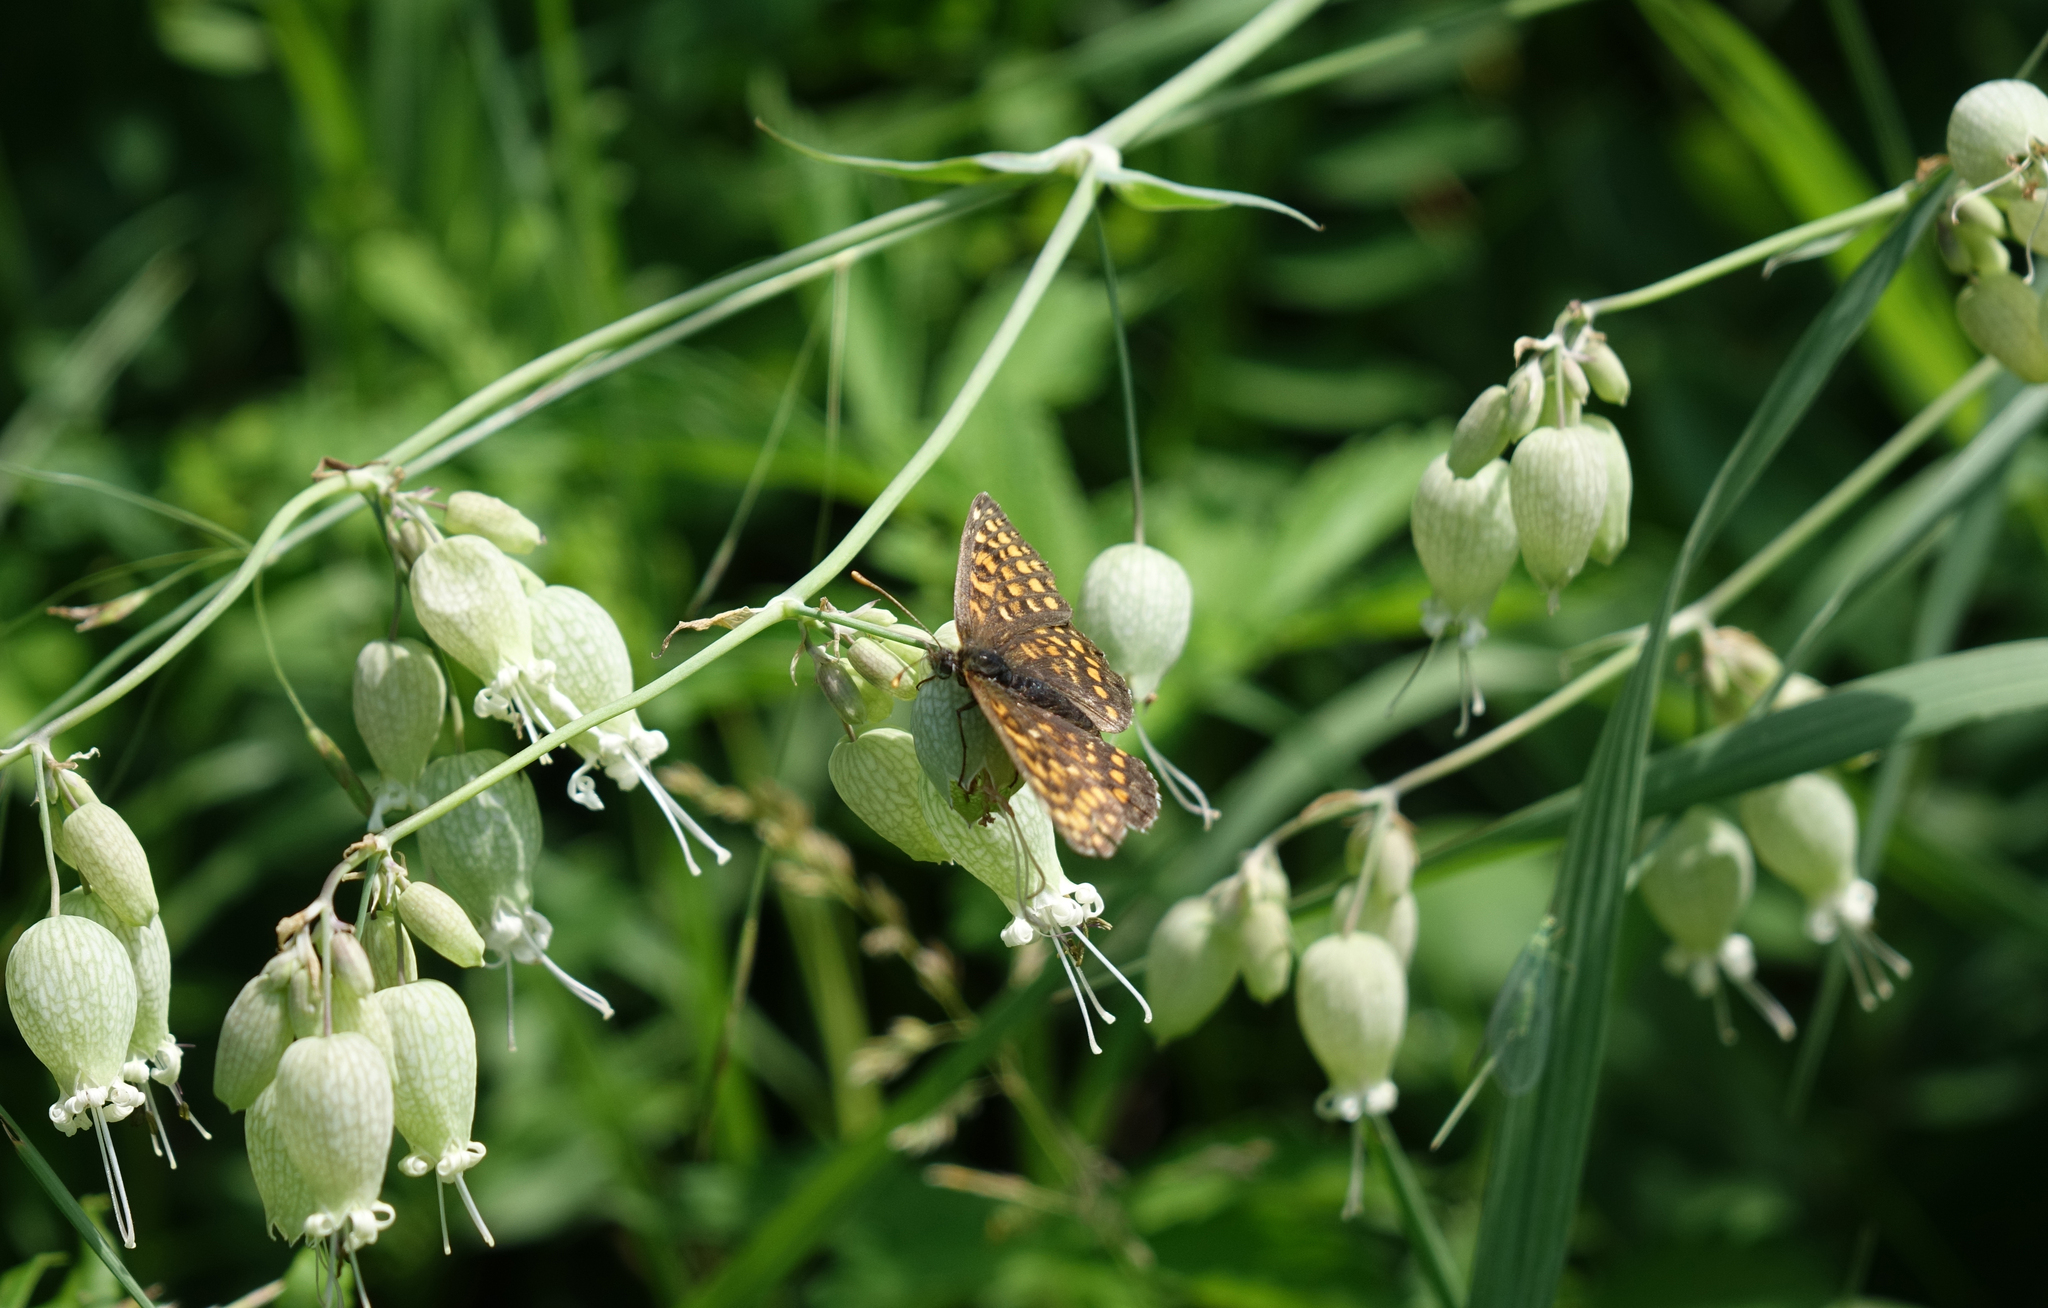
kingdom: Animalia
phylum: Arthropoda
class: Insecta
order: Lepidoptera
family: Nymphalidae
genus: Melitaea
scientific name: Melitaea
